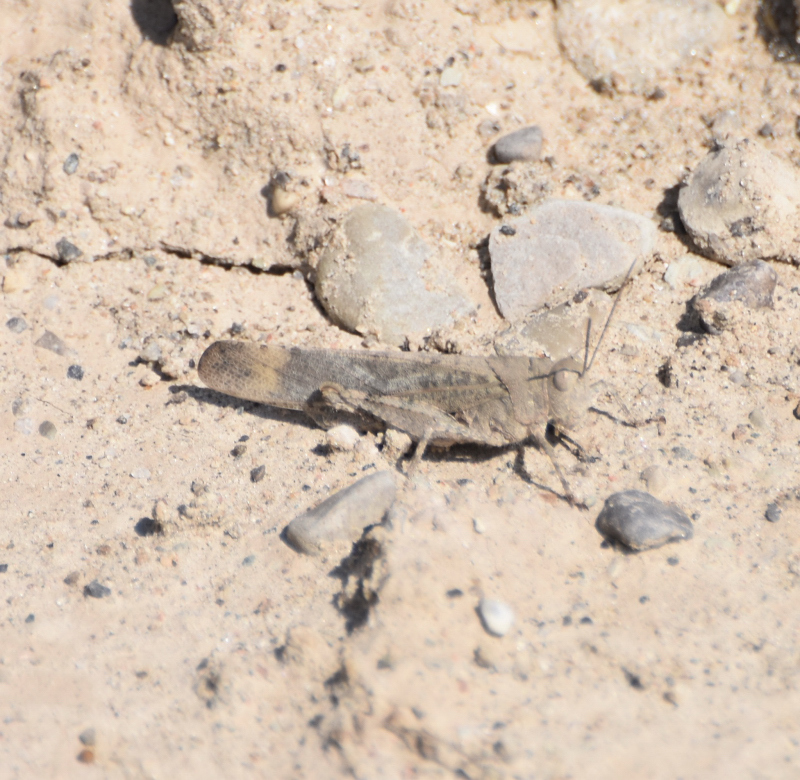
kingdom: Animalia
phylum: Arthropoda
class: Insecta
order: Orthoptera
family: Acrididae
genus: Dissosteira
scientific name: Dissosteira carolina
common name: Carolina grasshopper
